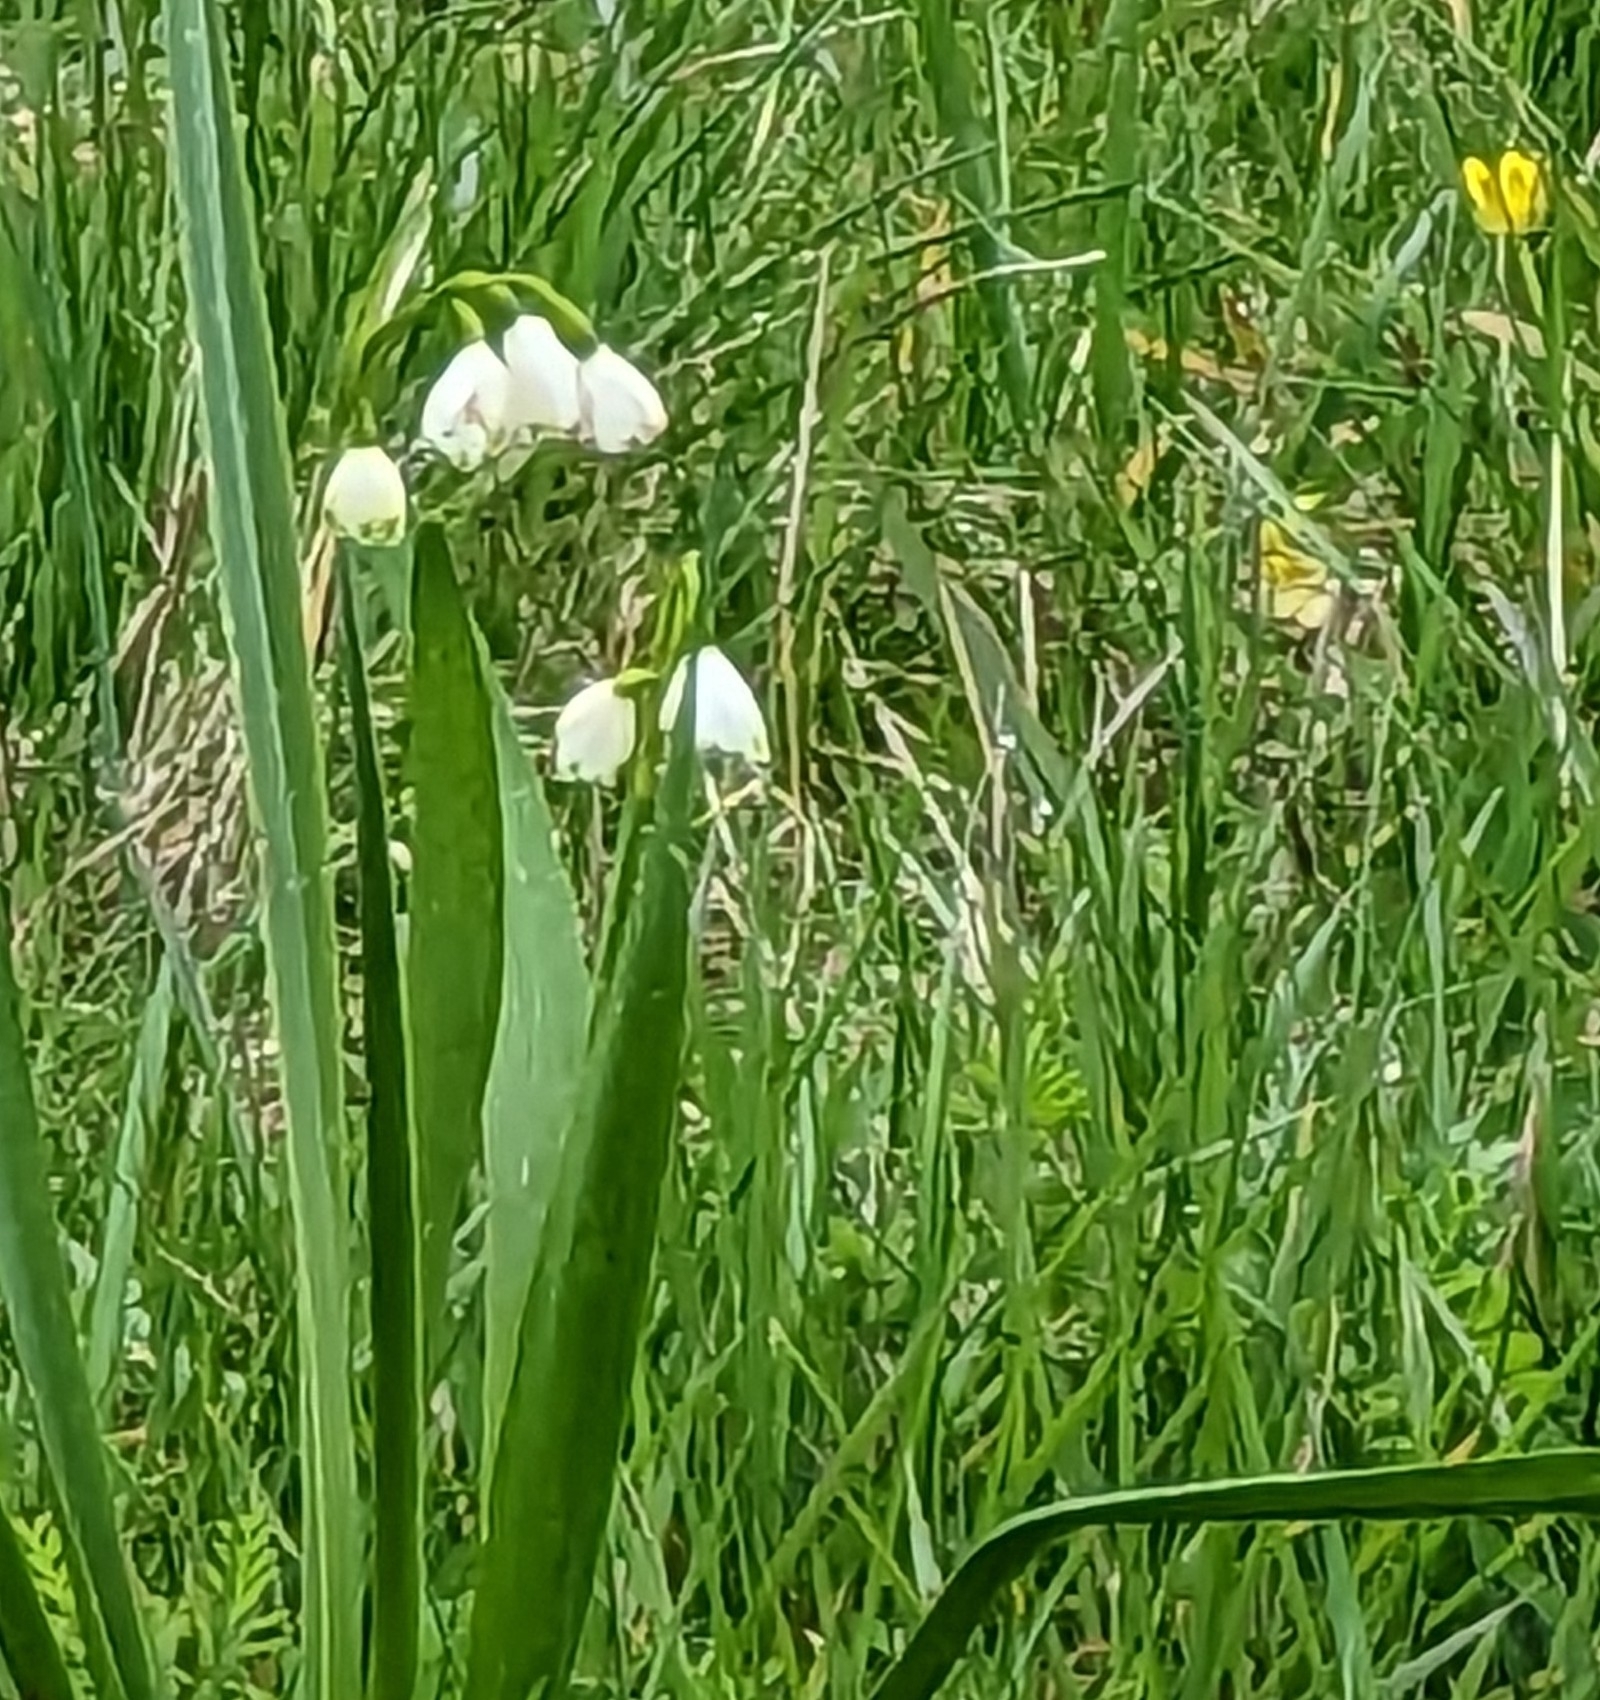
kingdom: Plantae
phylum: Tracheophyta
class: Liliopsida
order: Asparagales
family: Amaryllidaceae
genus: Leucojum
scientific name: Leucojum aestivum
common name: Summer snowflake
